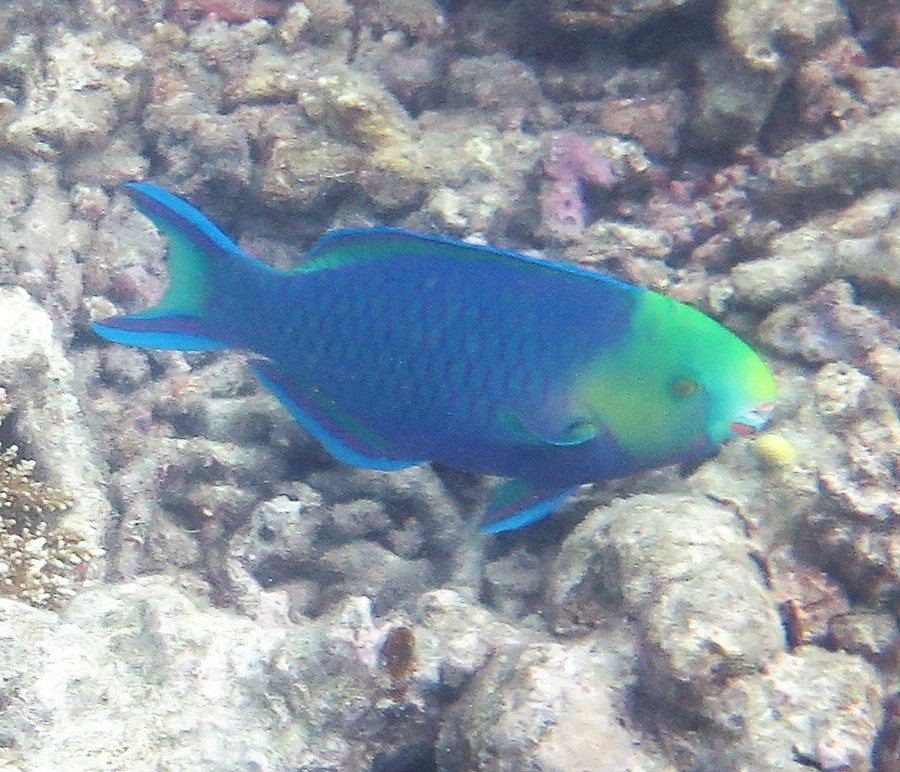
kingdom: Animalia
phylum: Chordata
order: Perciformes
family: Scaridae
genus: Scarus
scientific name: Scarus spinus
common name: Greensnout parrotfish
